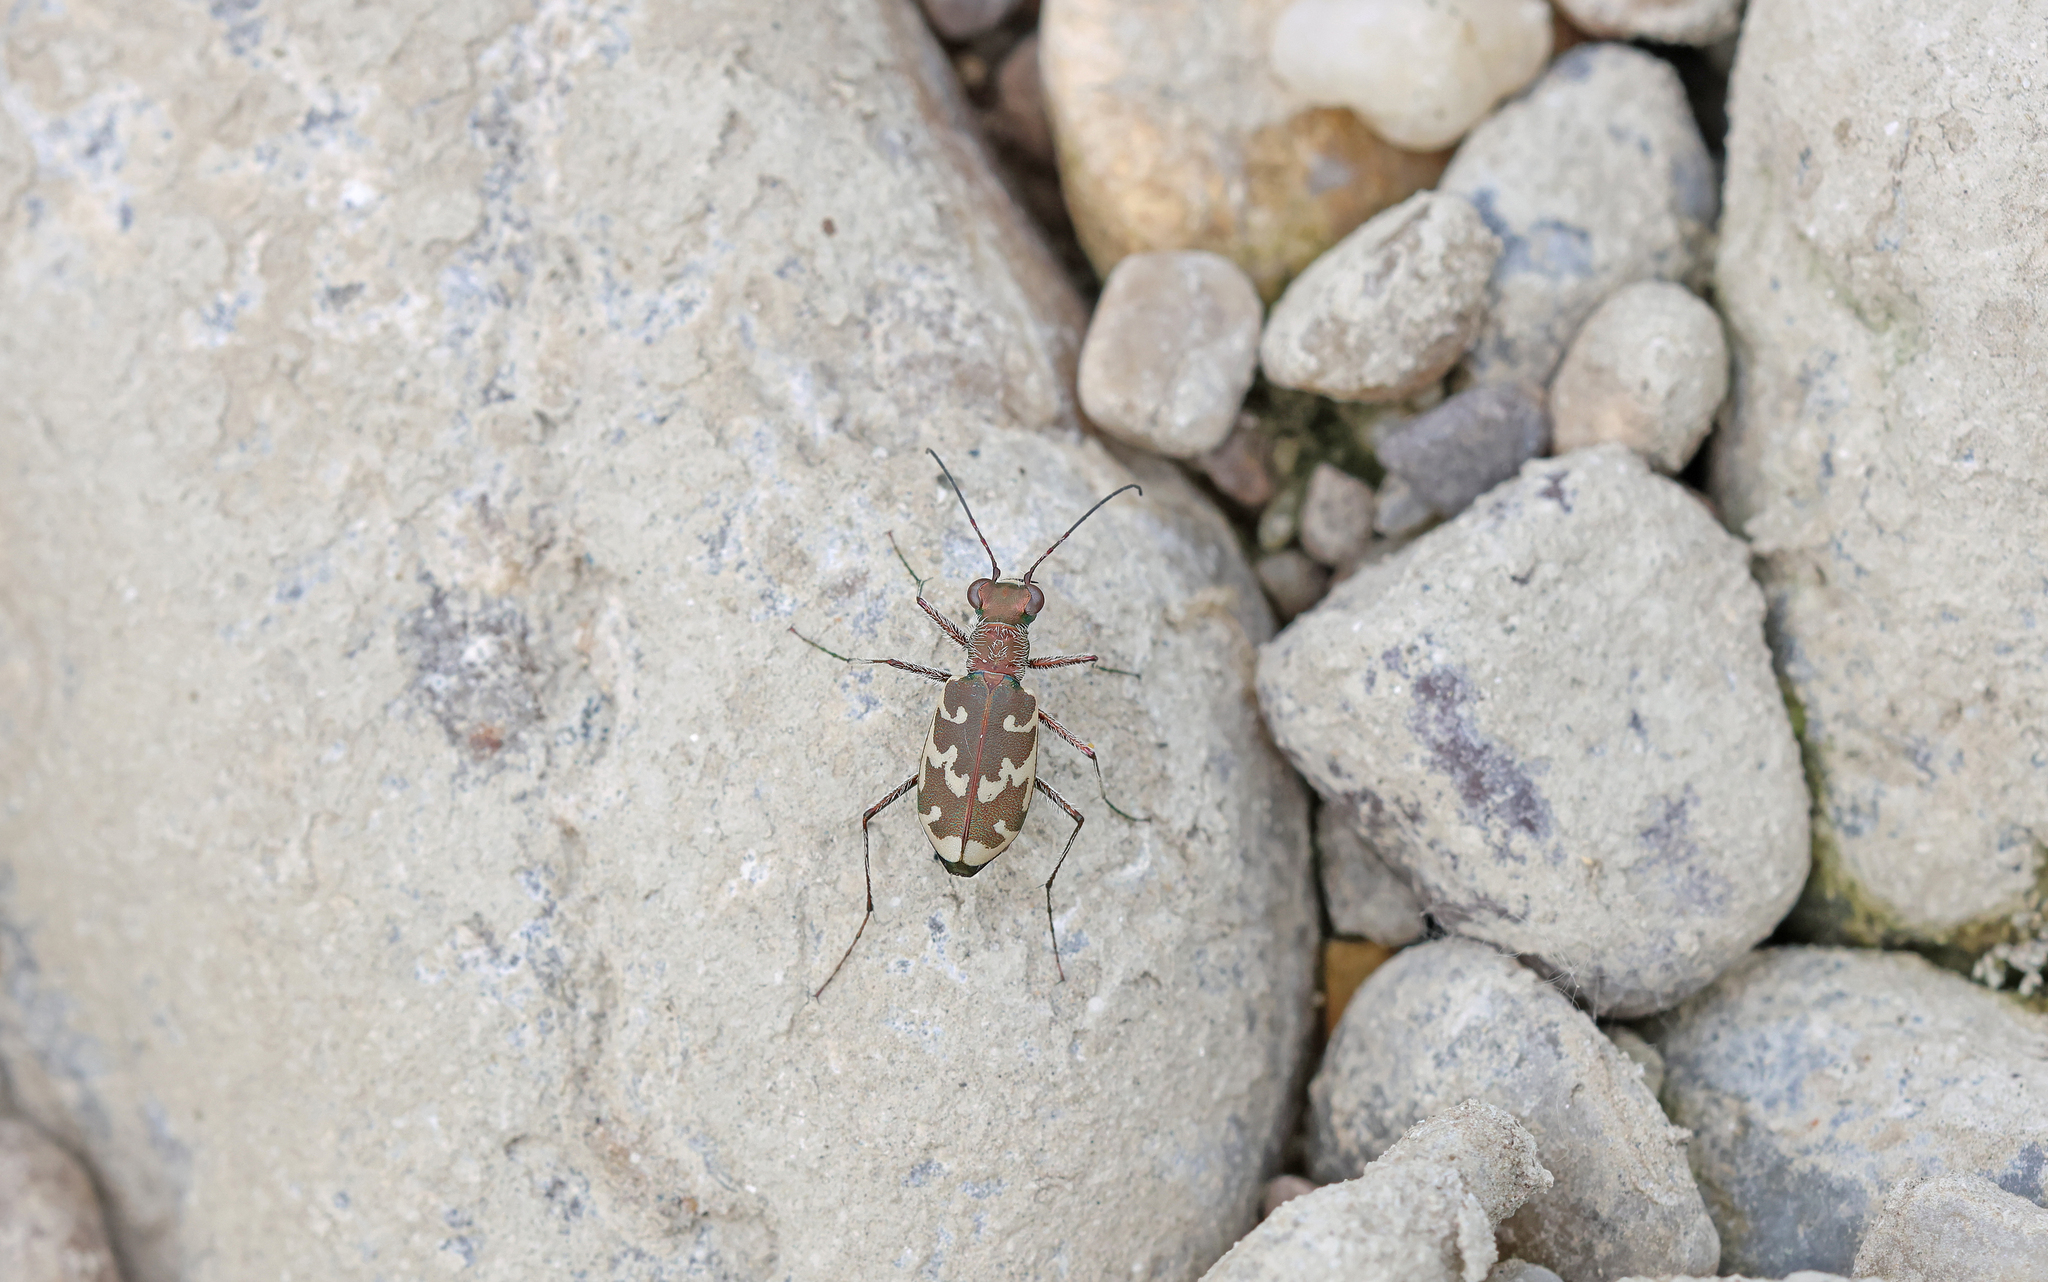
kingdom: Animalia
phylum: Arthropoda
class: Insecta
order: Coleoptera
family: Carabidae
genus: Cylindera
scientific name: Cylindera arenaria
